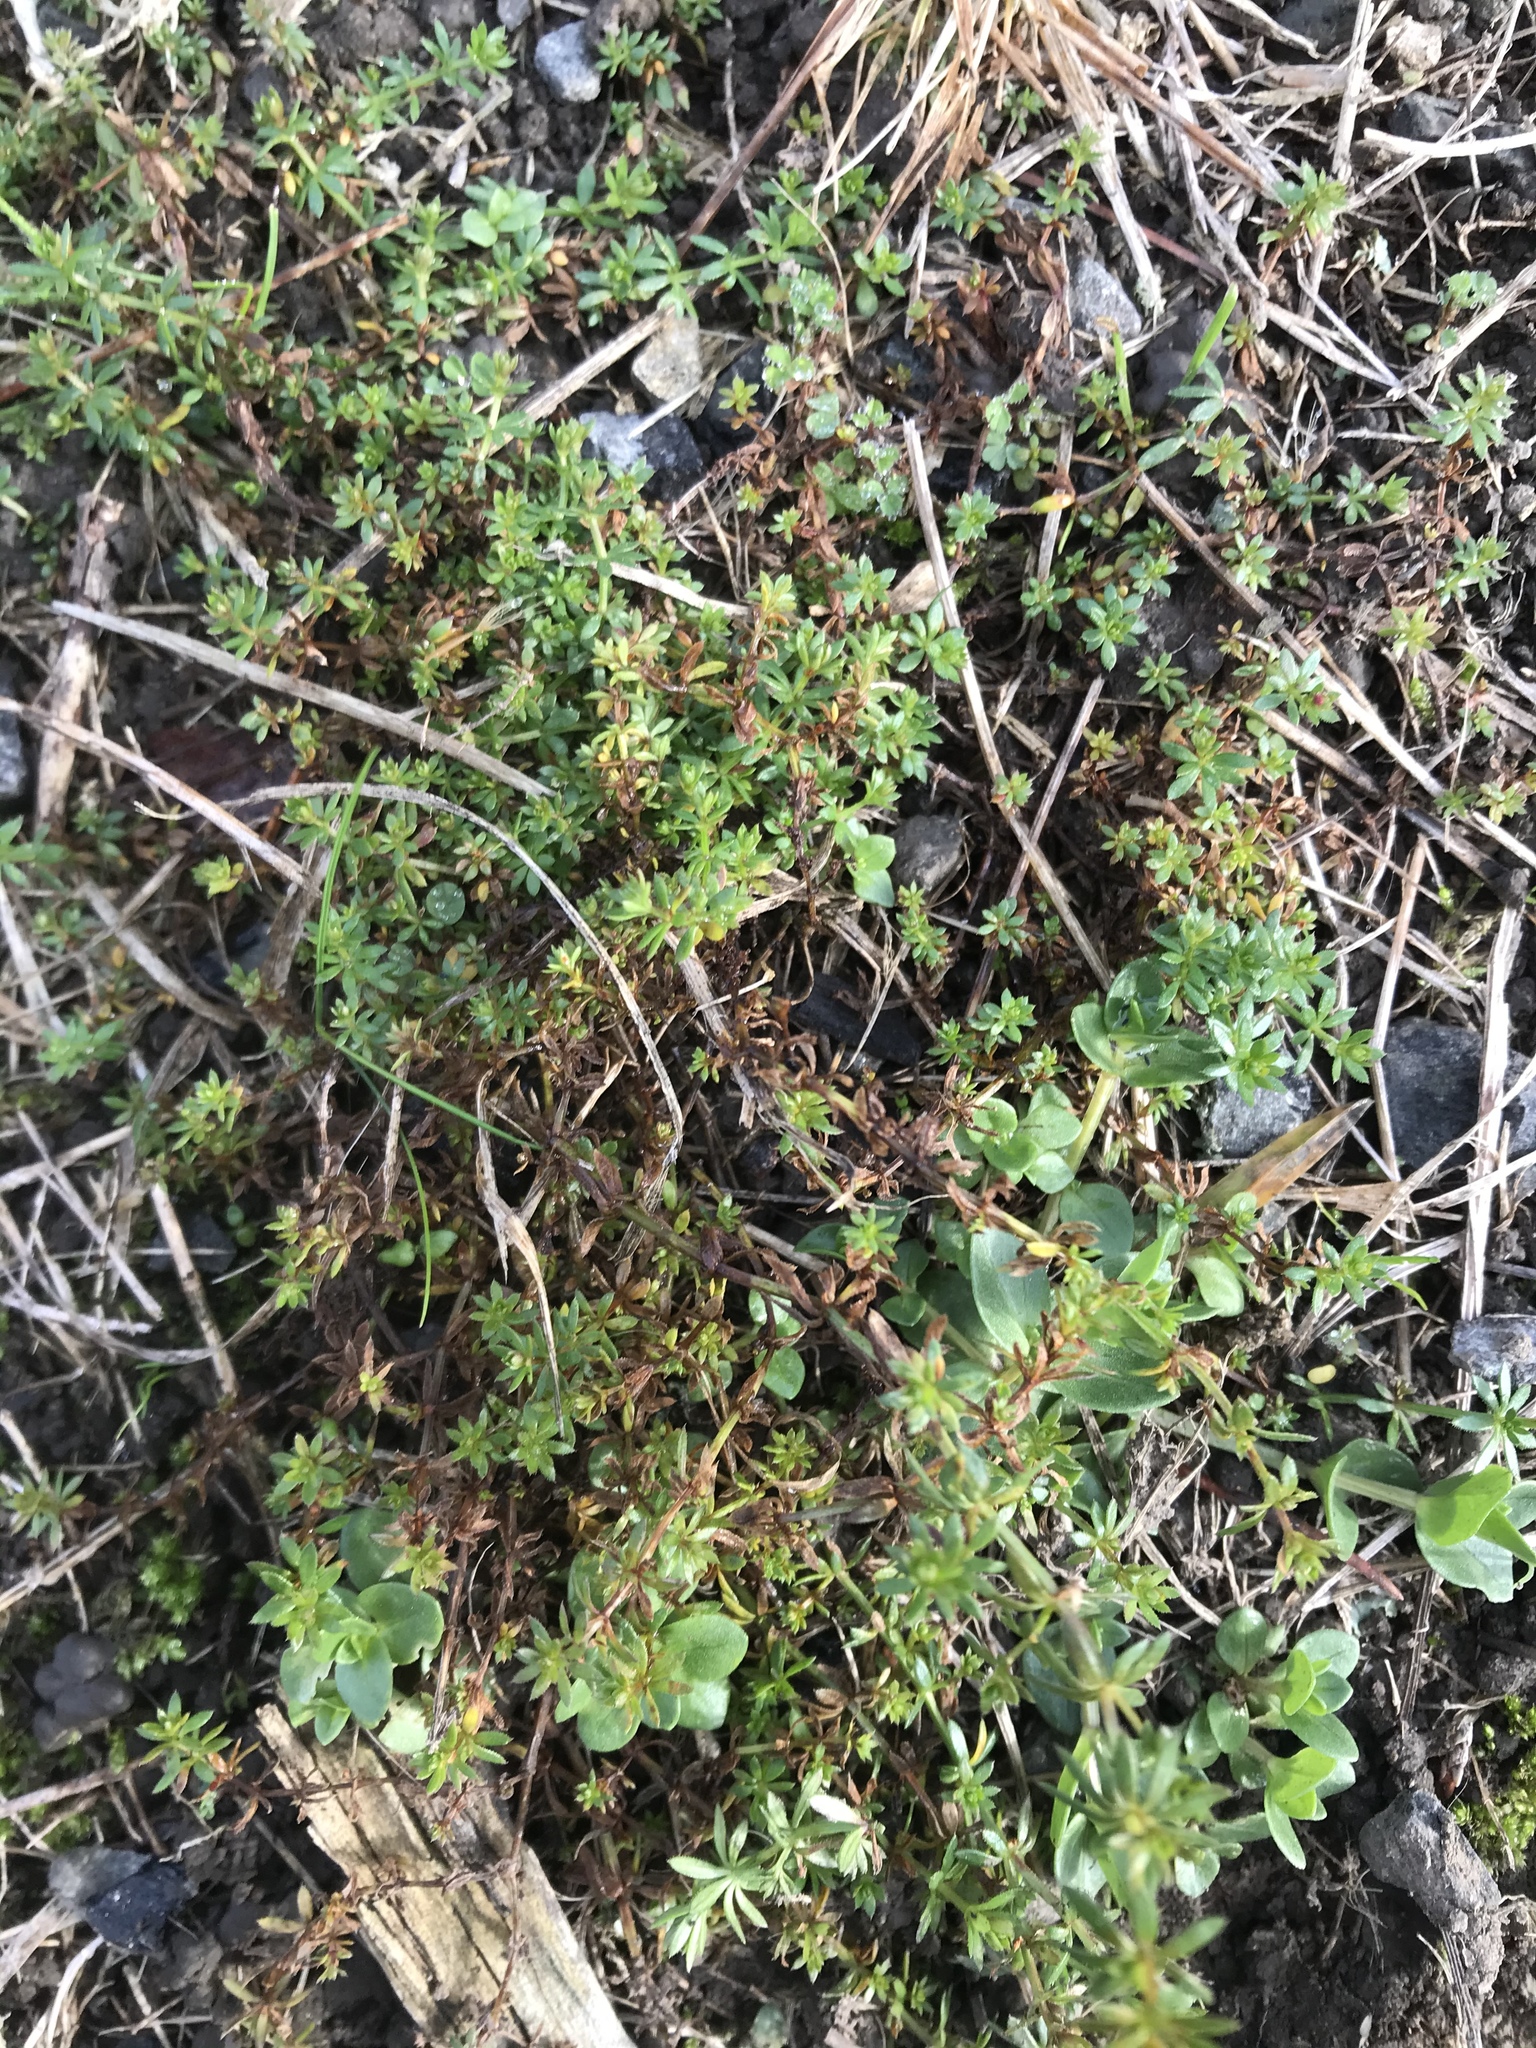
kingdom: Plantae
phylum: Tracheophyta
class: Magnoliopsida
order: Gentianales
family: Rubiaceae
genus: Sherardia
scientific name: Sherardia arvensis
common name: Field madder
